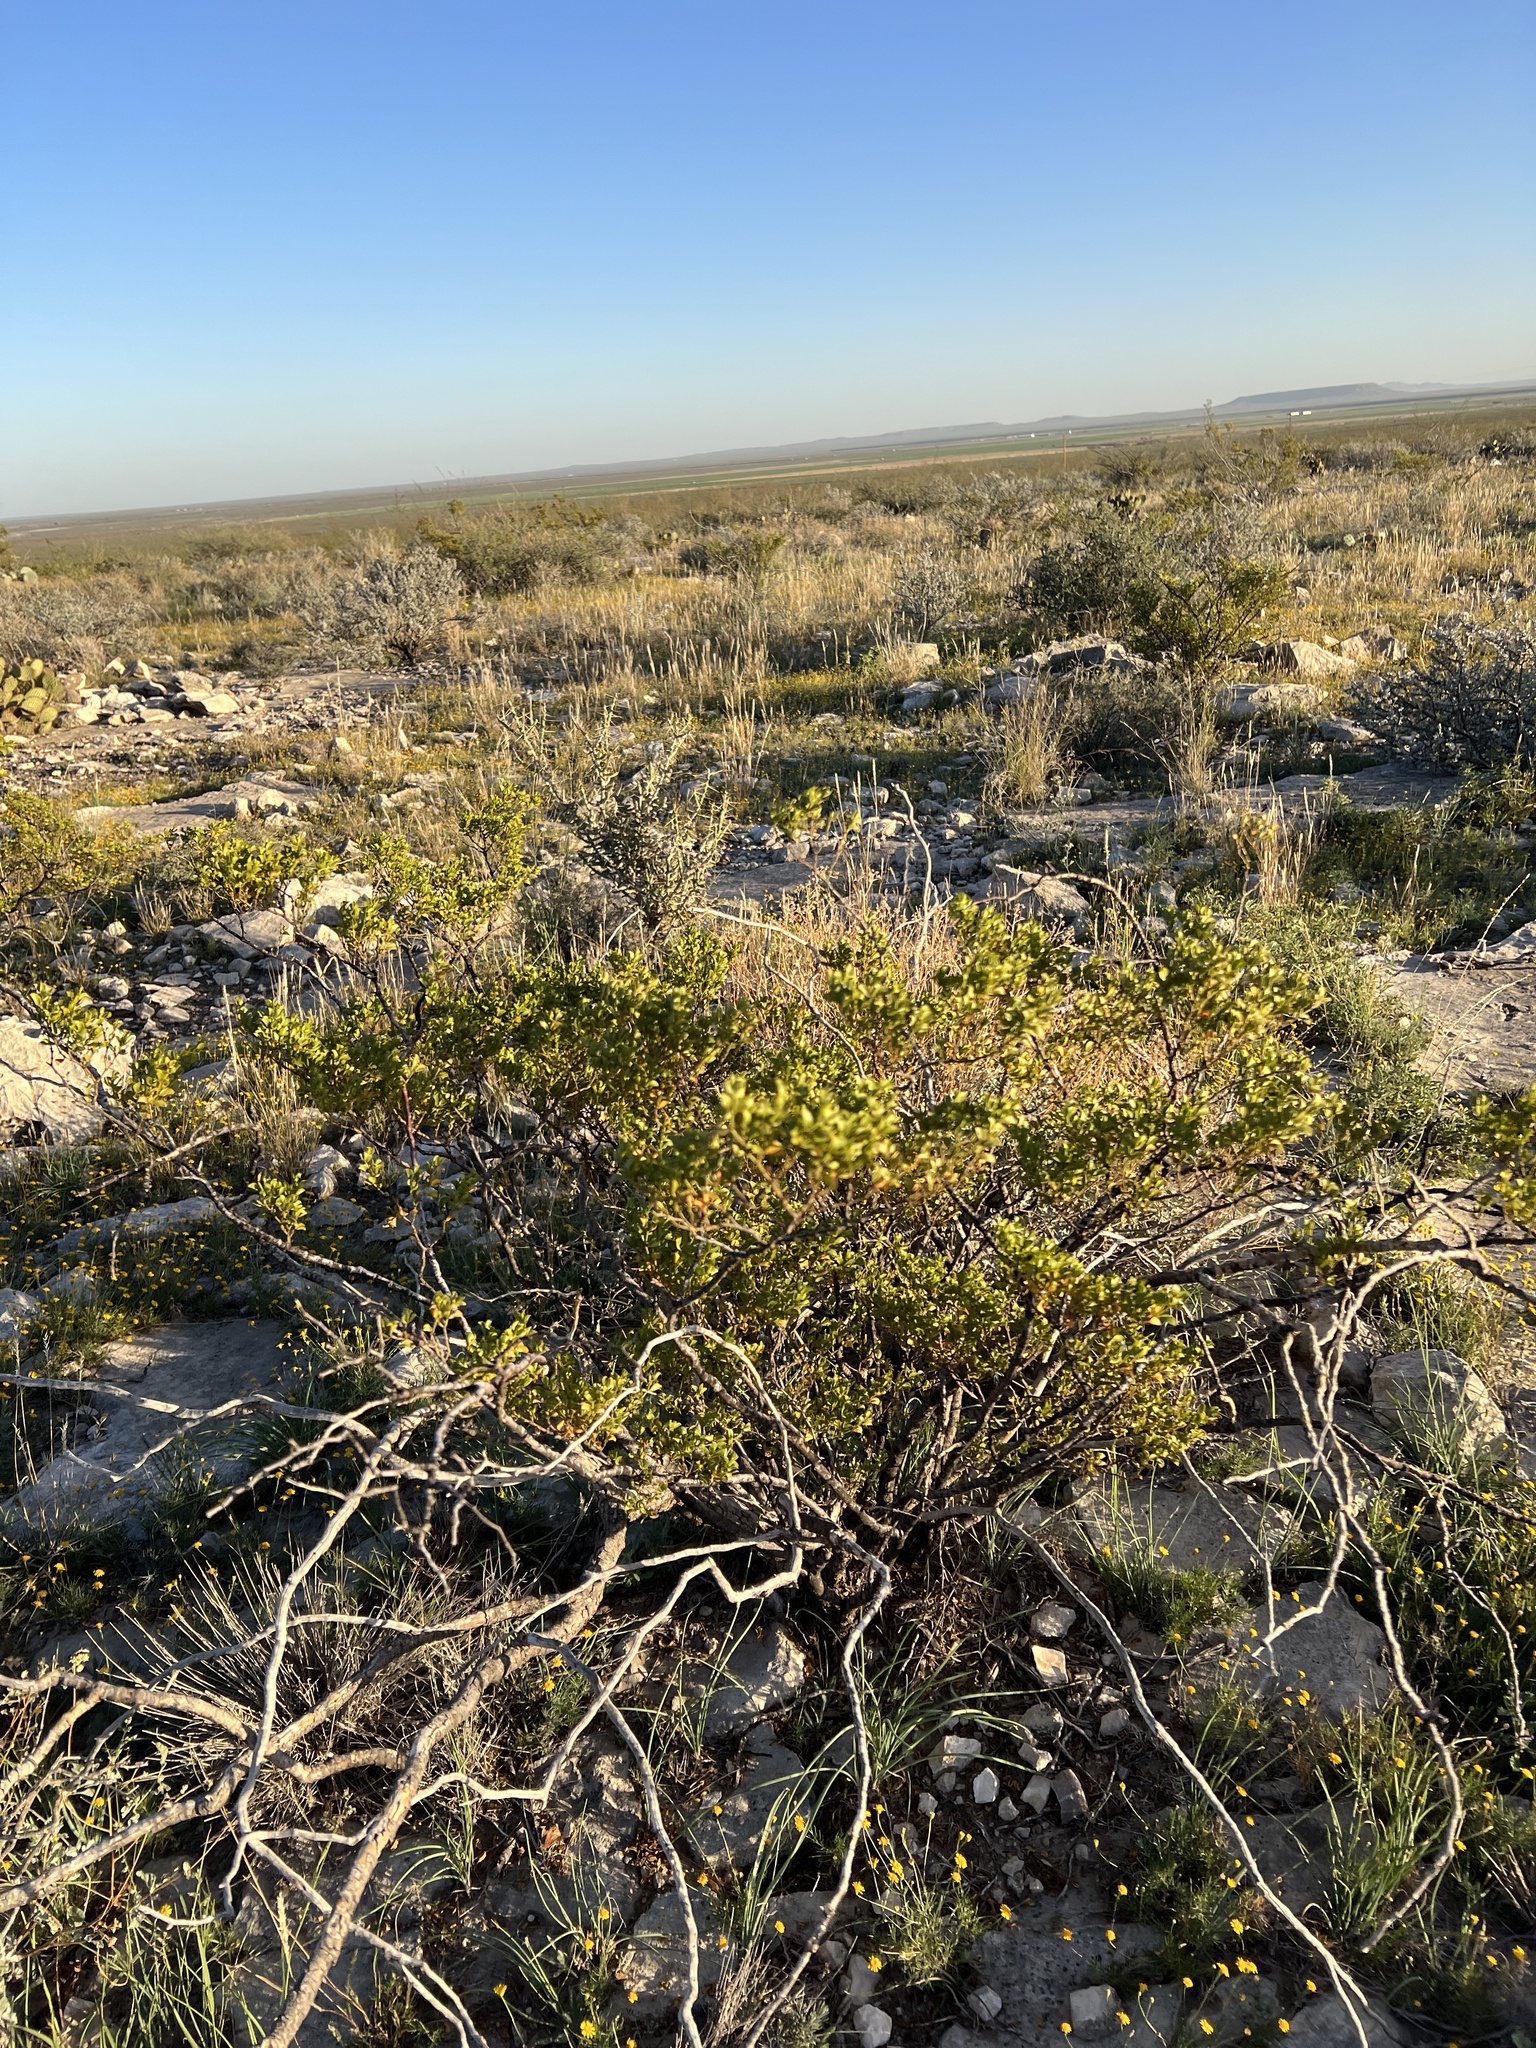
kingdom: Plantae
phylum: Tracheophyta
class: Magnoliopsida
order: Zygophyllales
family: Zygophyllaceae
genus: Larrea
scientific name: Larrea tridentata
